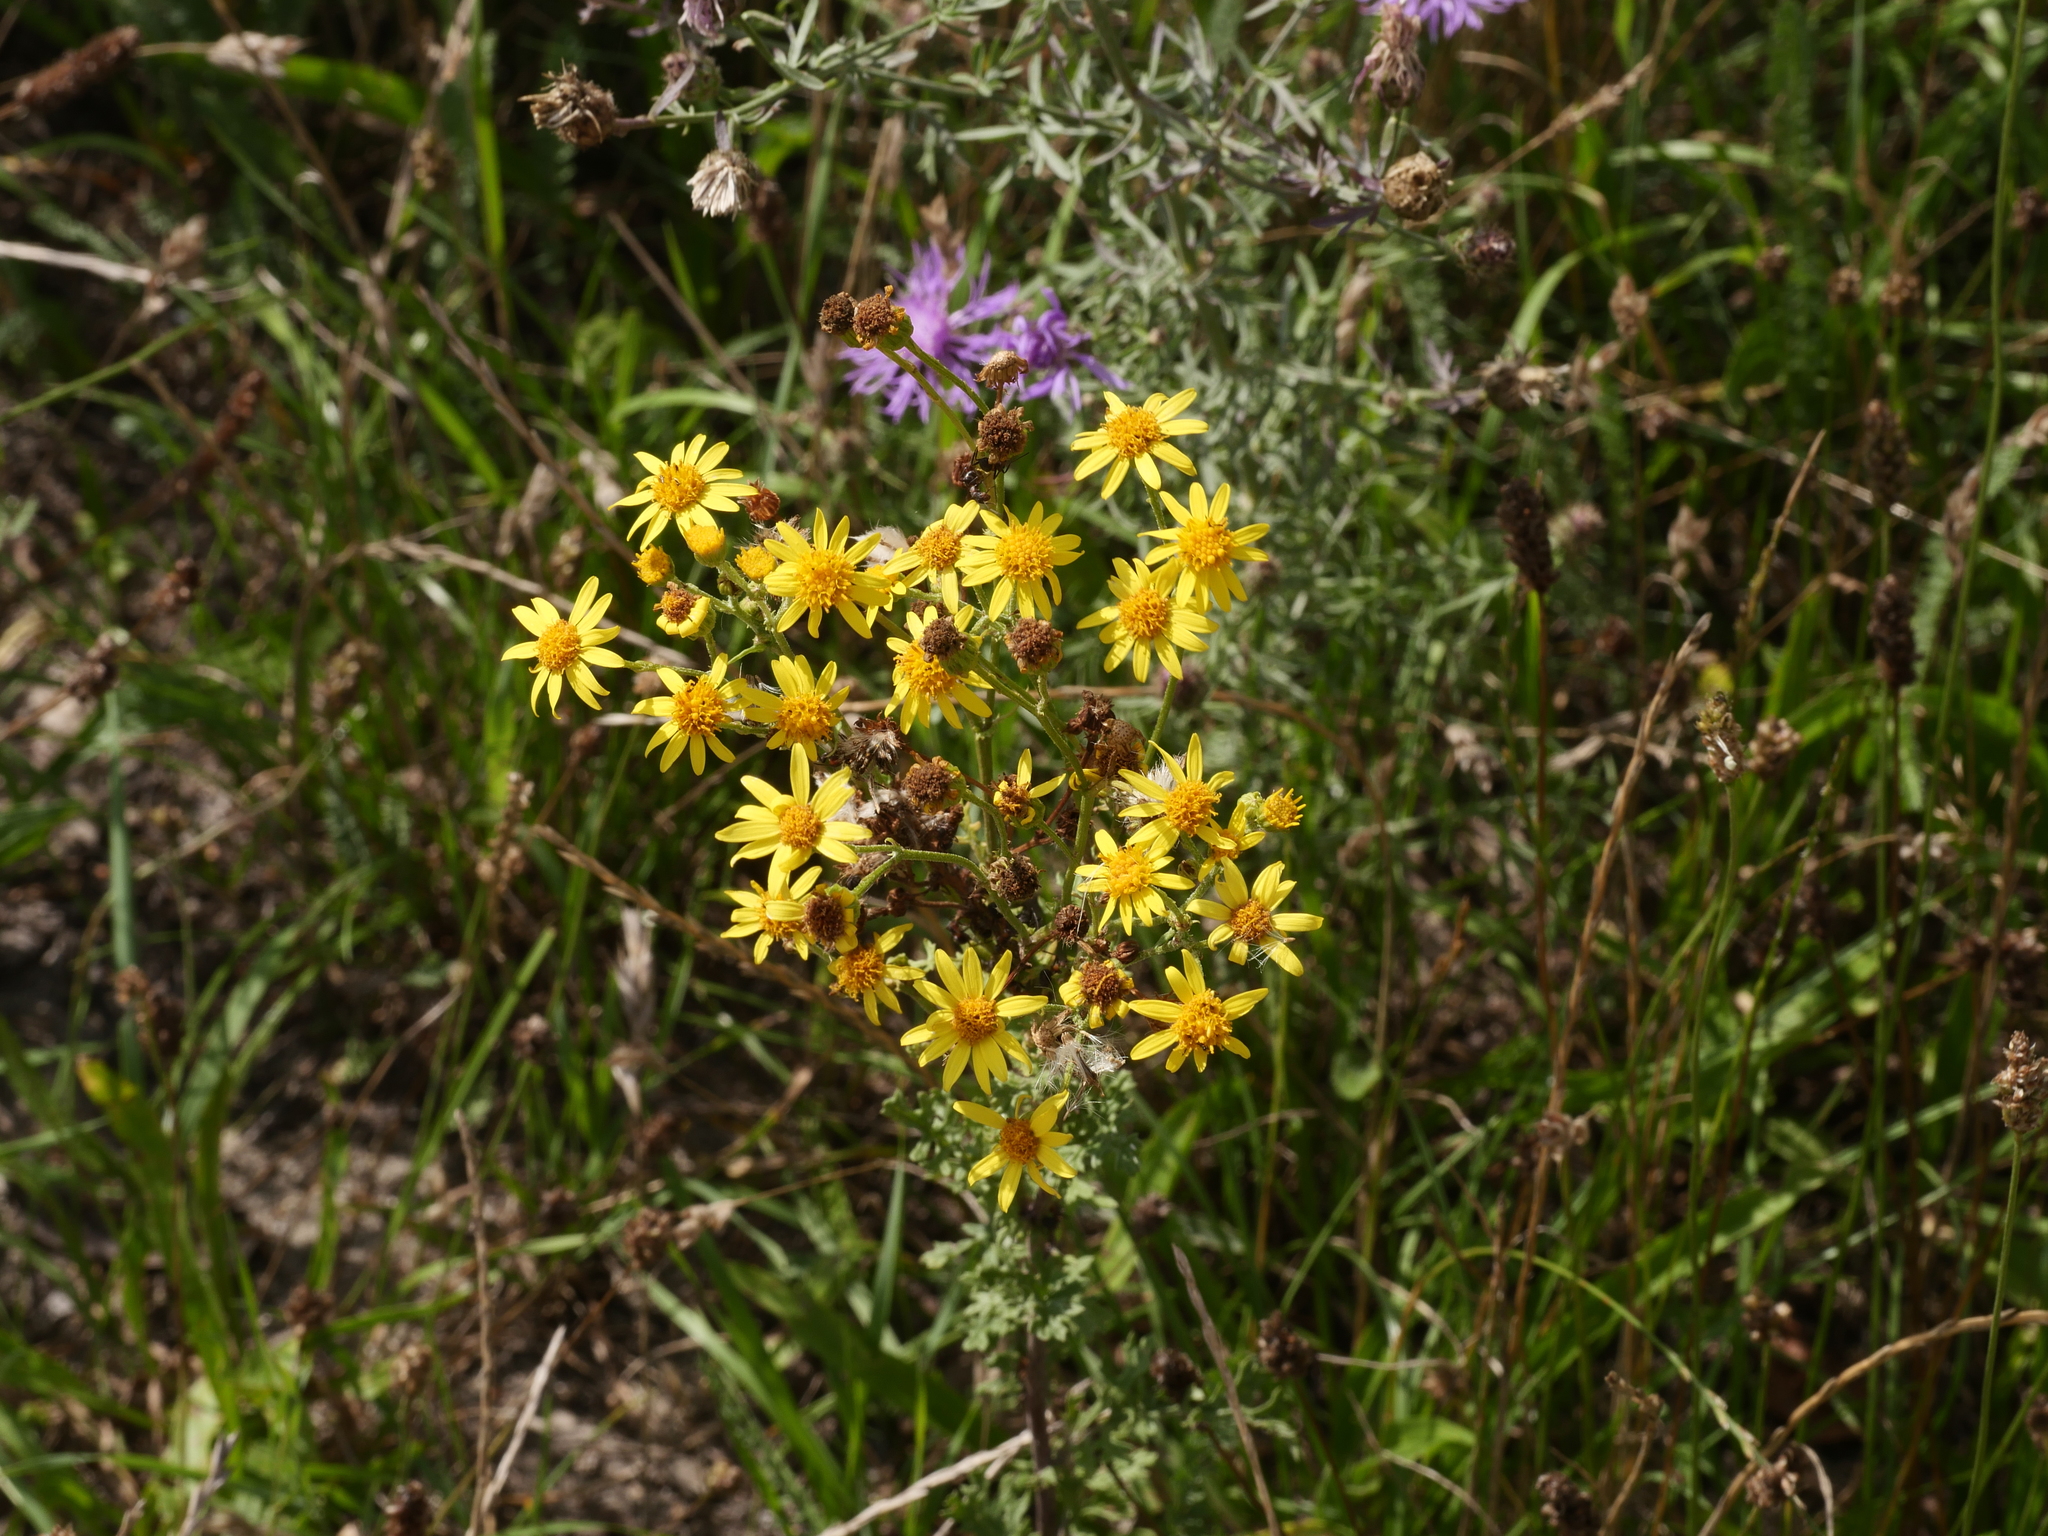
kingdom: Plantae
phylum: Tracheophyta
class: Magnoliopsida
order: Asterales
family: Asteraceae
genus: Jacobaea
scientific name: Jacobaea vulgaris
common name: Stinking willie
